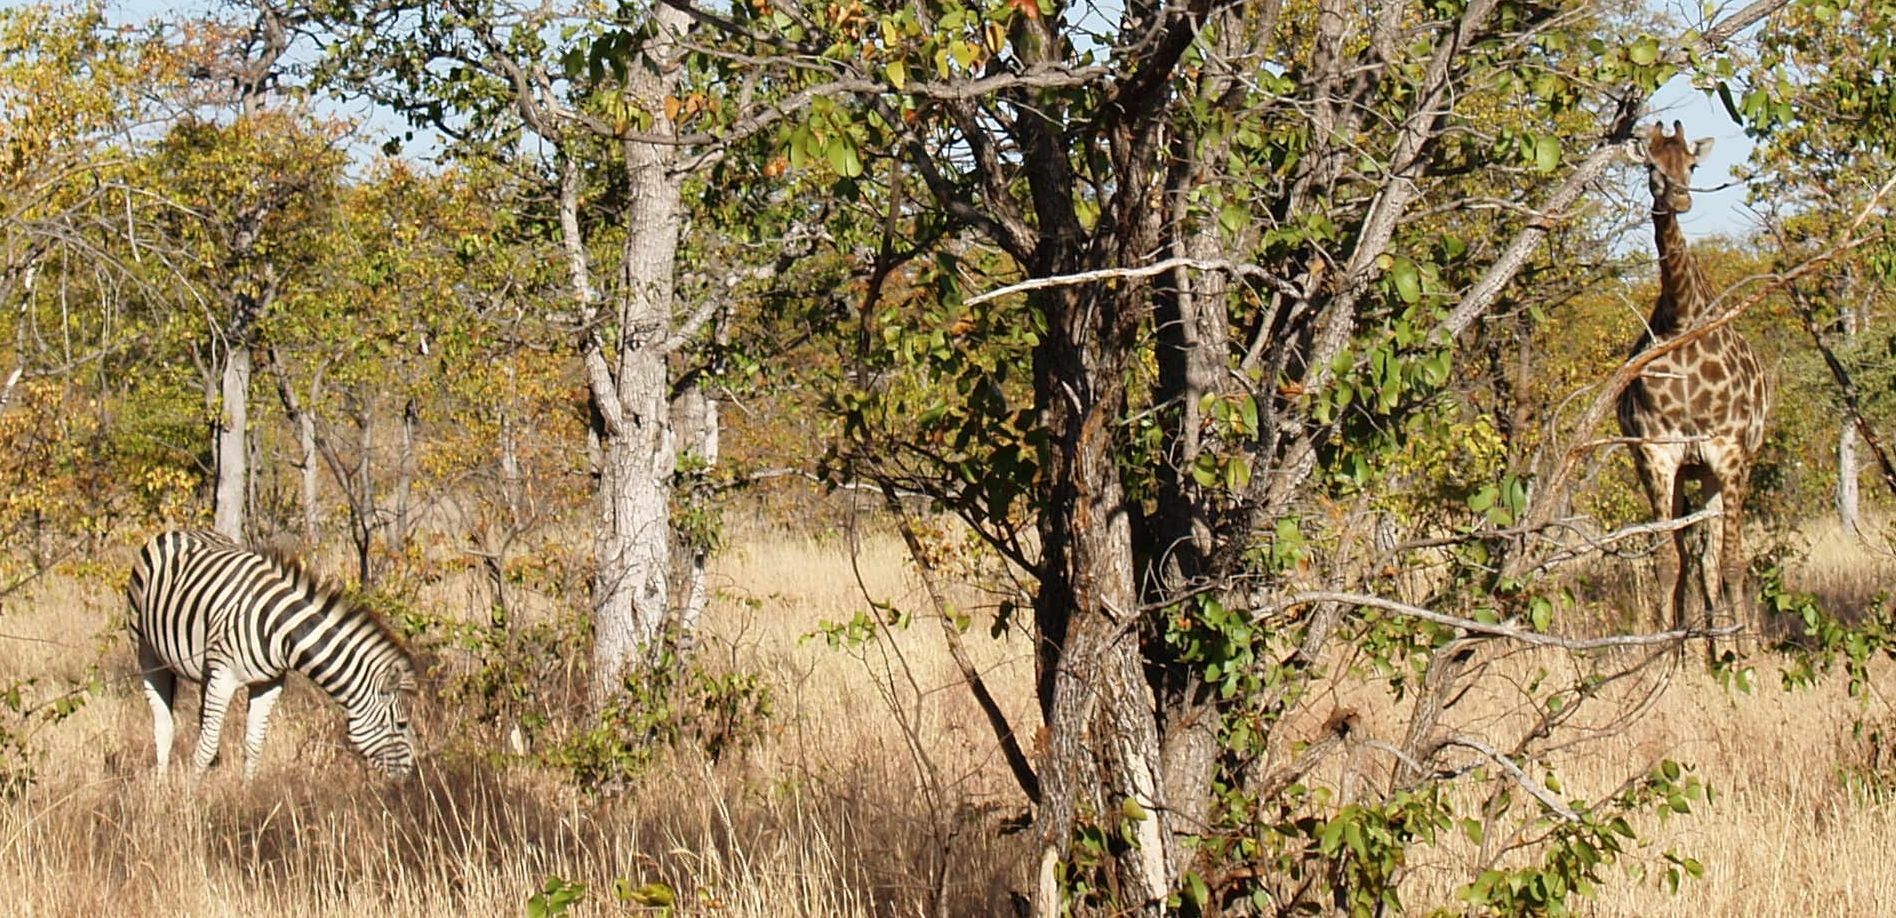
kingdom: Animalia
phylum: Chordata
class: Mammalia
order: Perissodactyla
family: Equidae
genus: Equus
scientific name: Equus quagga
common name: Plains zebra
